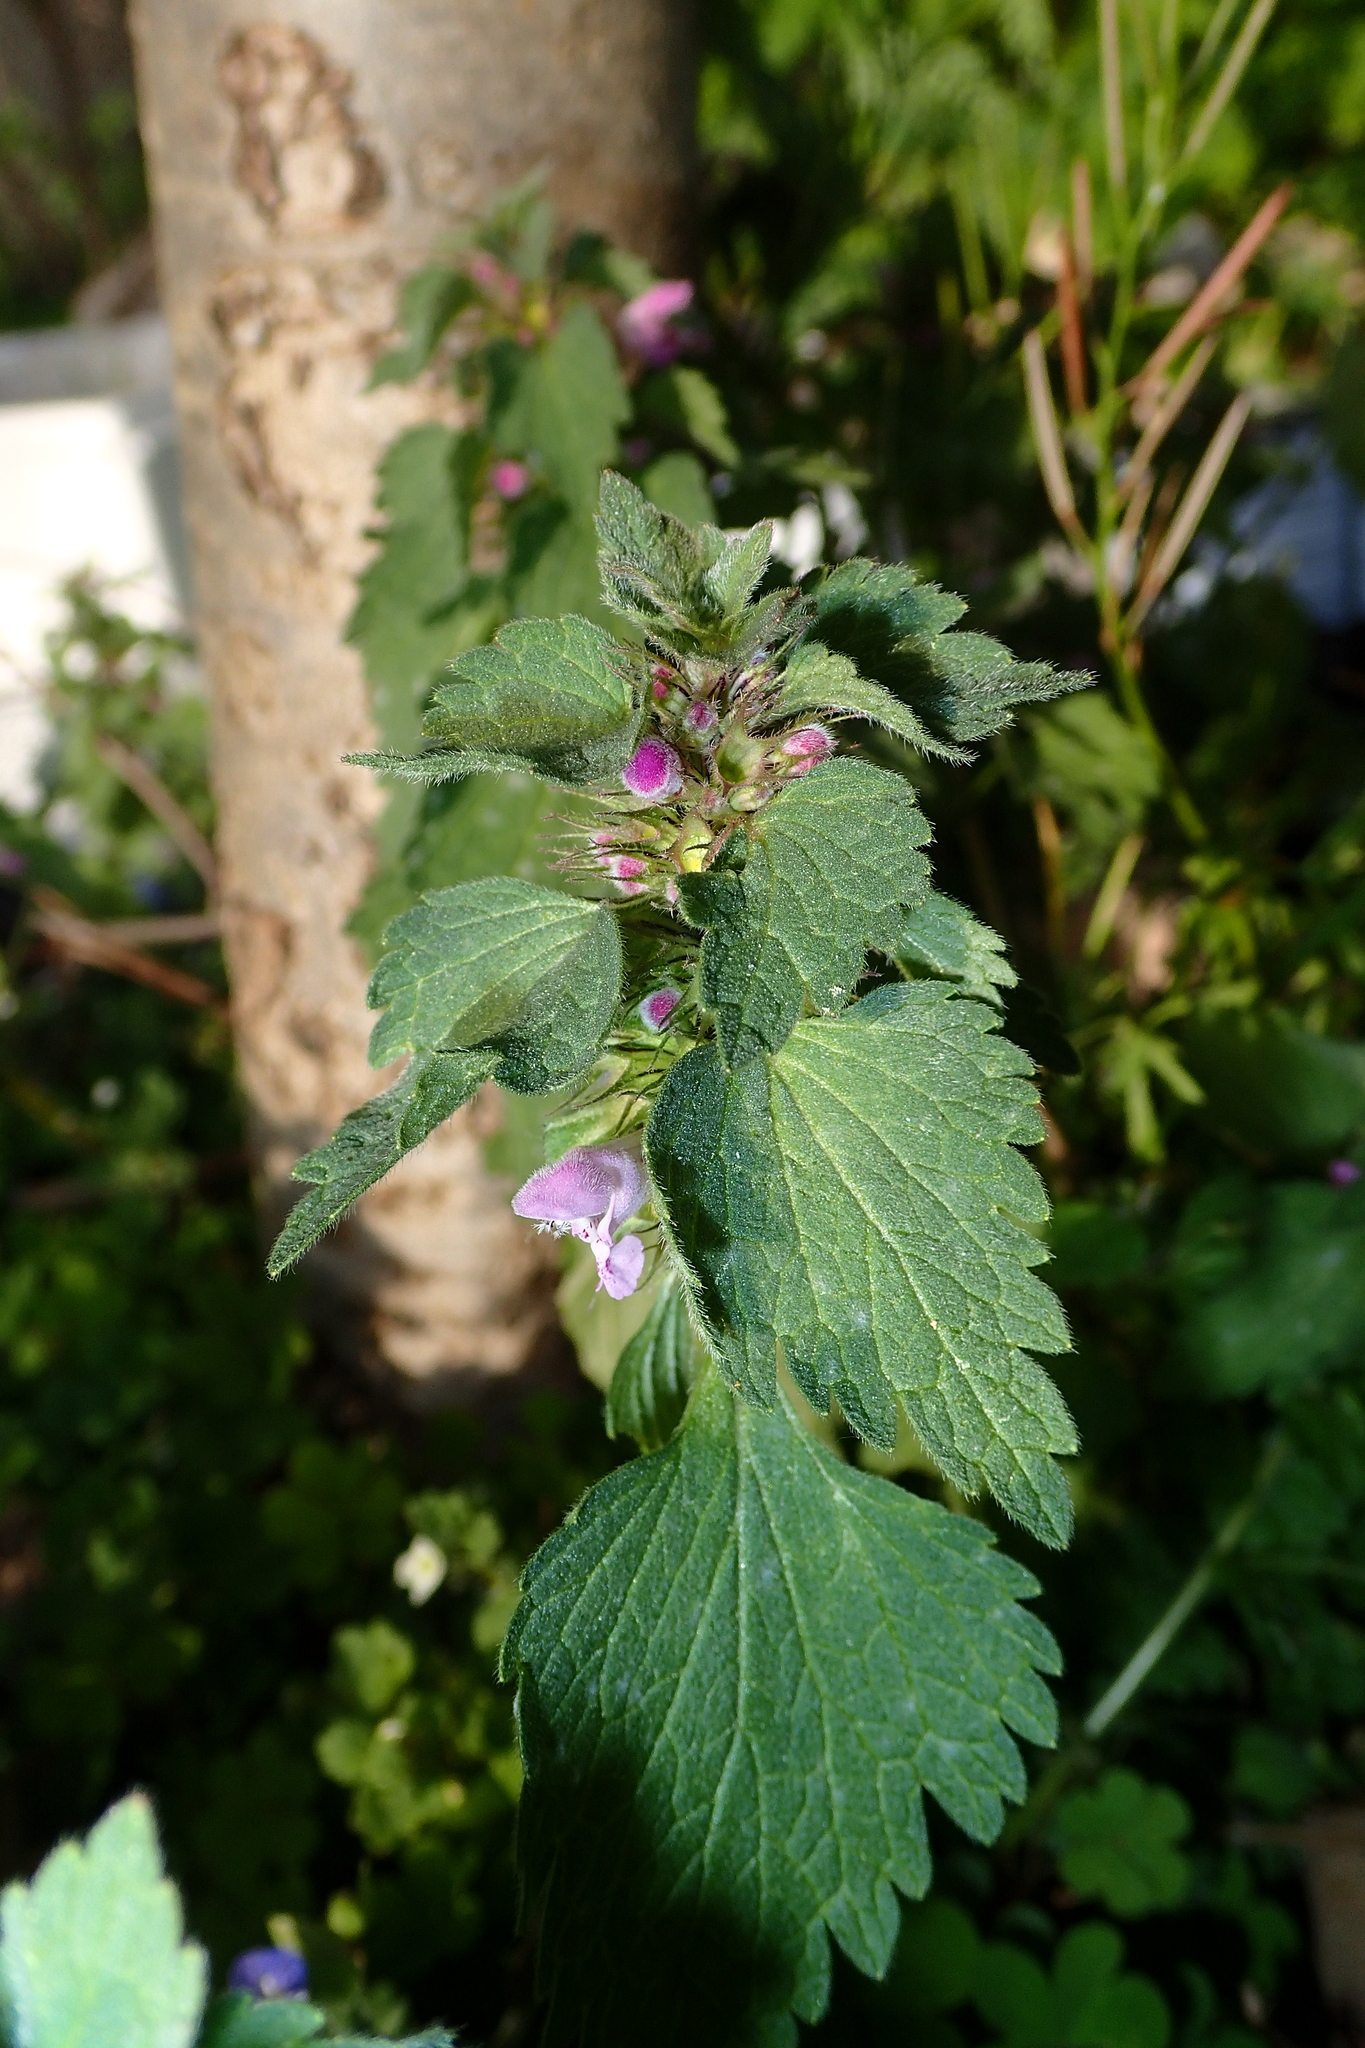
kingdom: Plantae
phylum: Tracheophyta
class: Magnoliopsida
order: Lamiales
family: Lamiaceae
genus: Lamium
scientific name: Lamium maculatum
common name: Spotted dead-nettle
